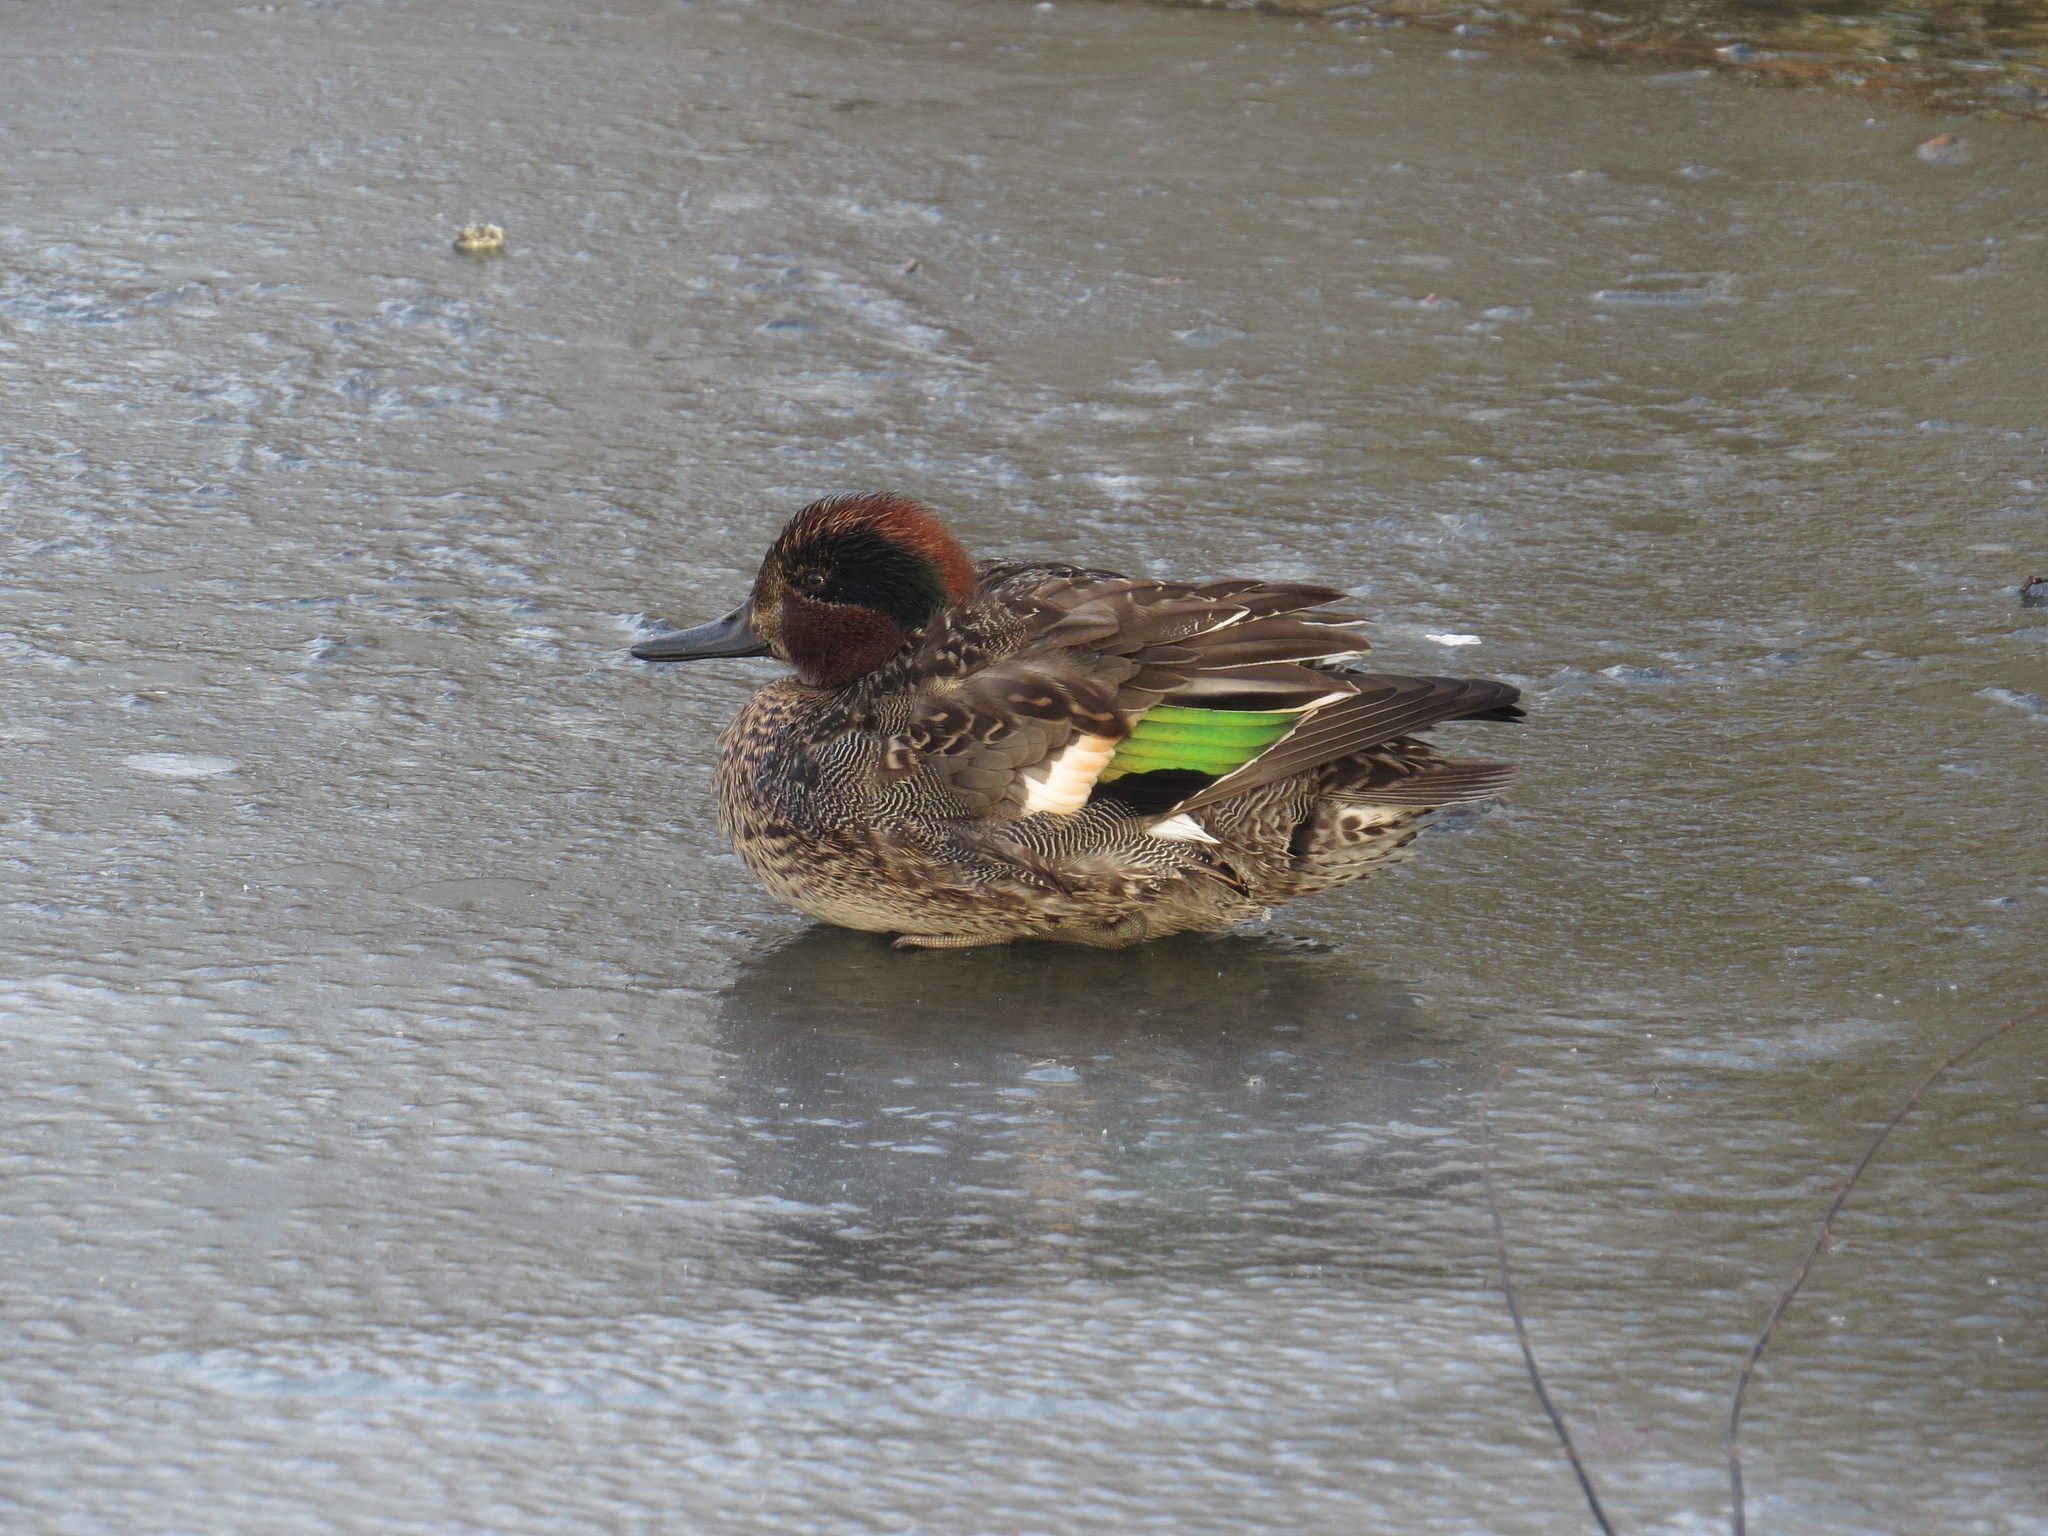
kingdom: Animalia
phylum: Chordata
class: Aves
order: Anseriformes
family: Anatidae
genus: Anas
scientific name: Anas crecca
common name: Eurasian teal
